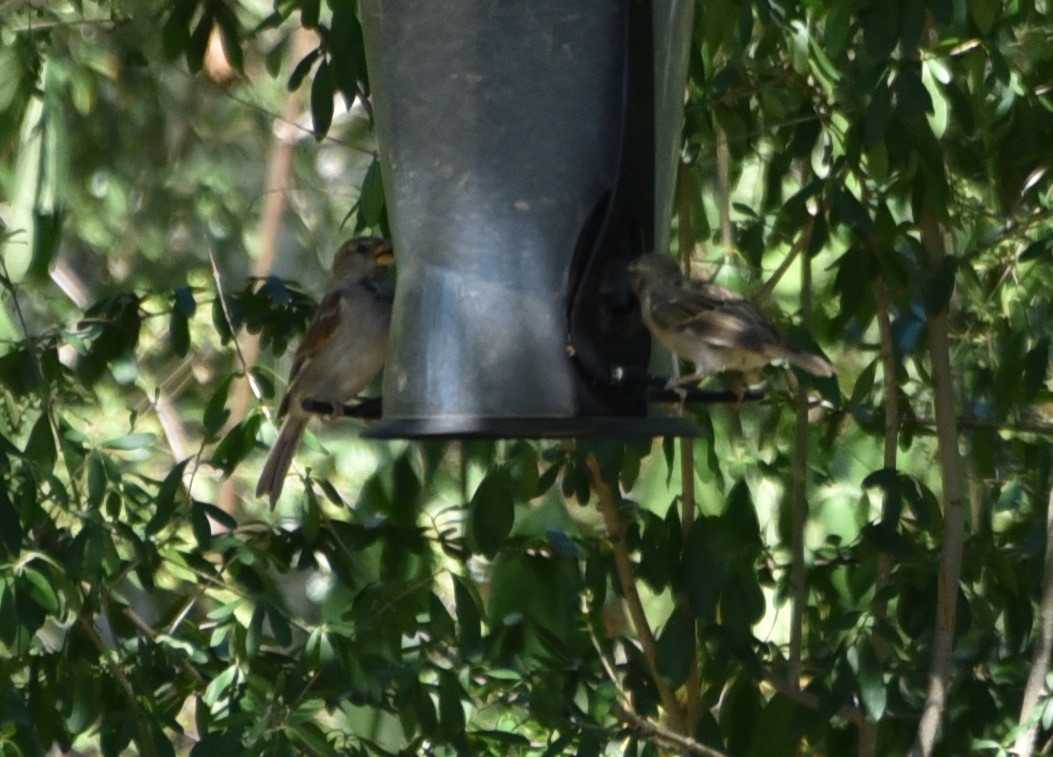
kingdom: Animalia
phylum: Chordata
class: Aves
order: Passeriformes
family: Passeridae
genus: Passer
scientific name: Passer domesticus
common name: House sparrow
